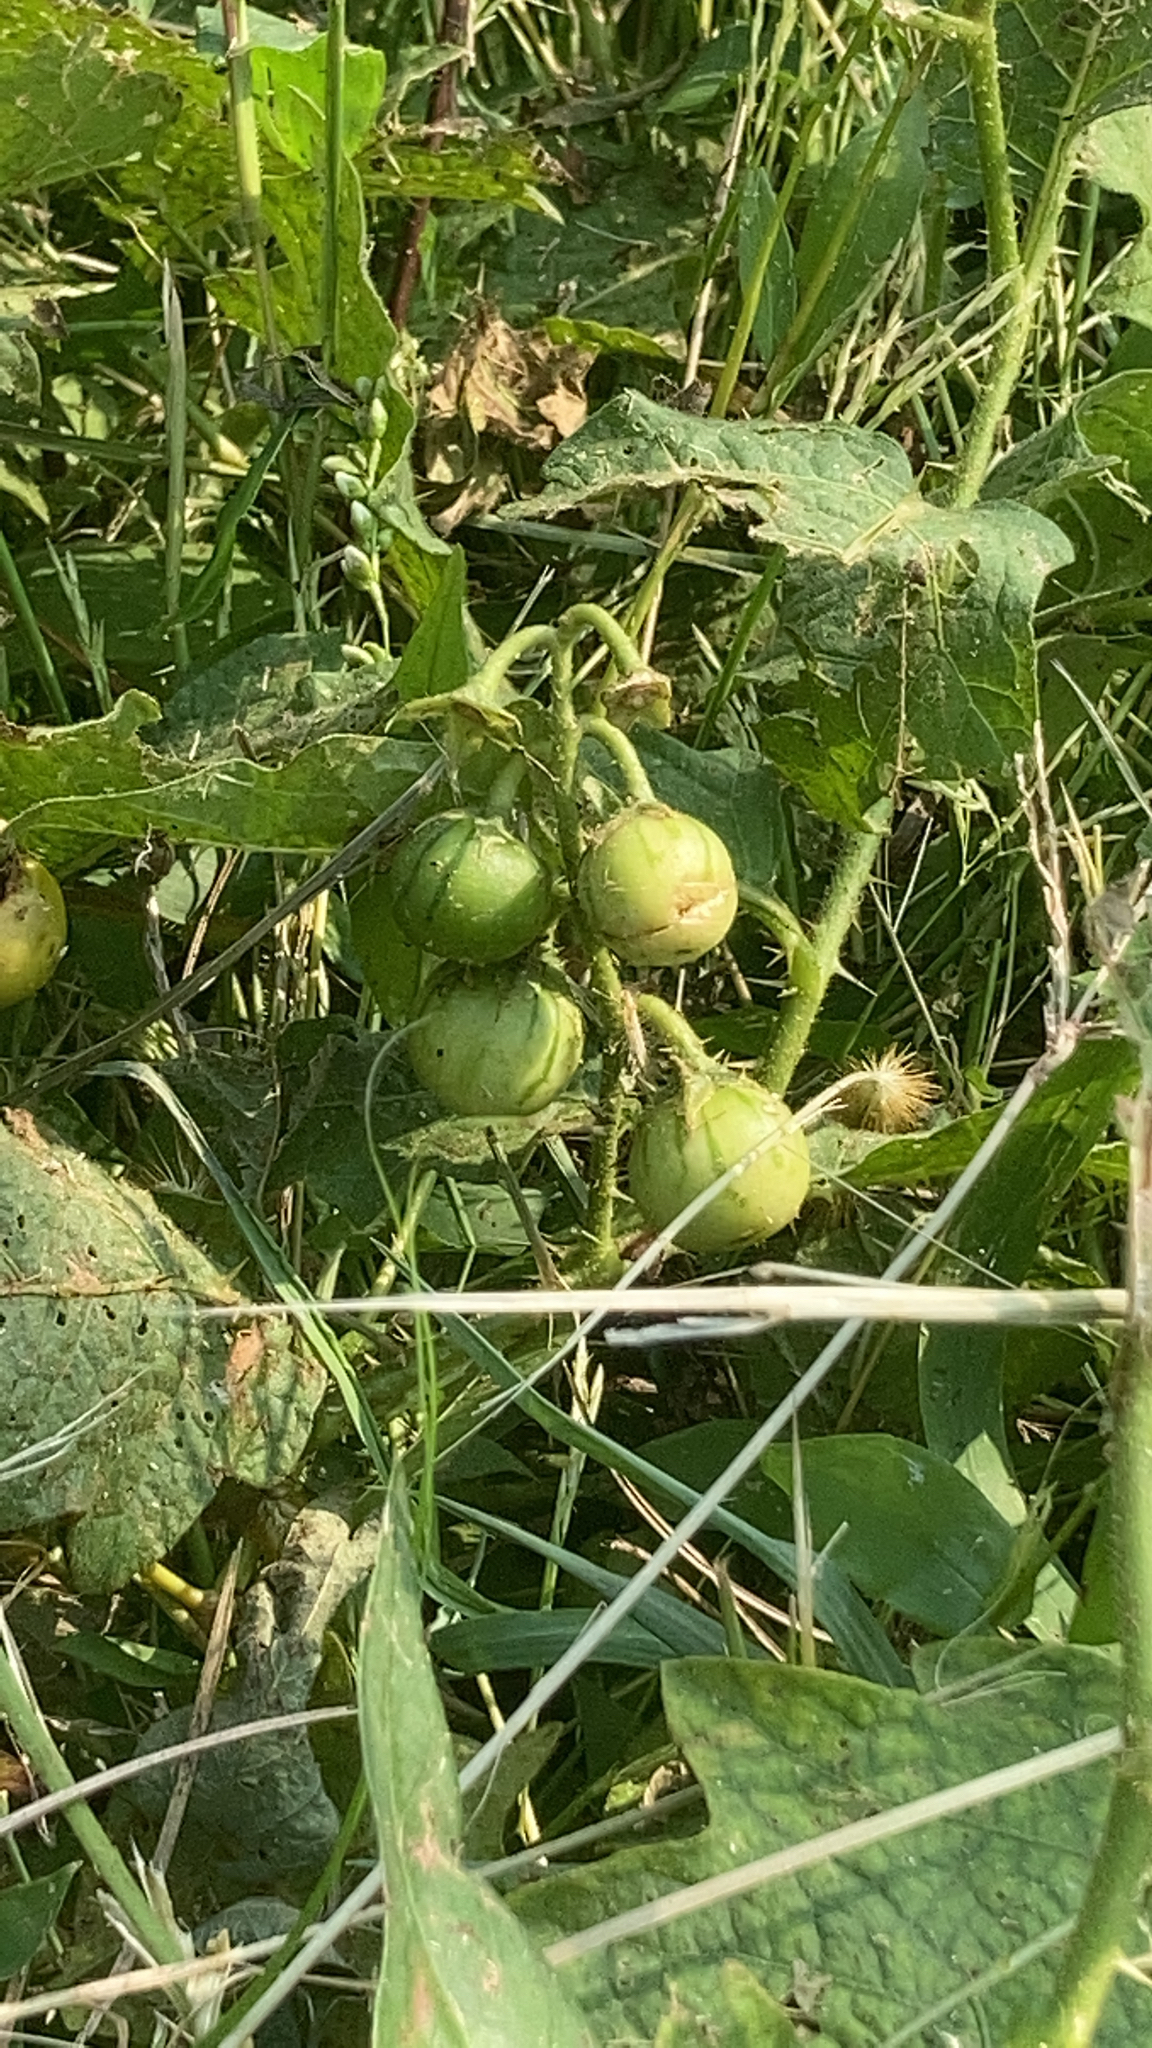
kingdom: Plantae
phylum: Tracheophyta
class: Magnoliopsida
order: Solanales
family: Solanaceae
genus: Solanum
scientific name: Solanum carolinense
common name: Horse-nettle
